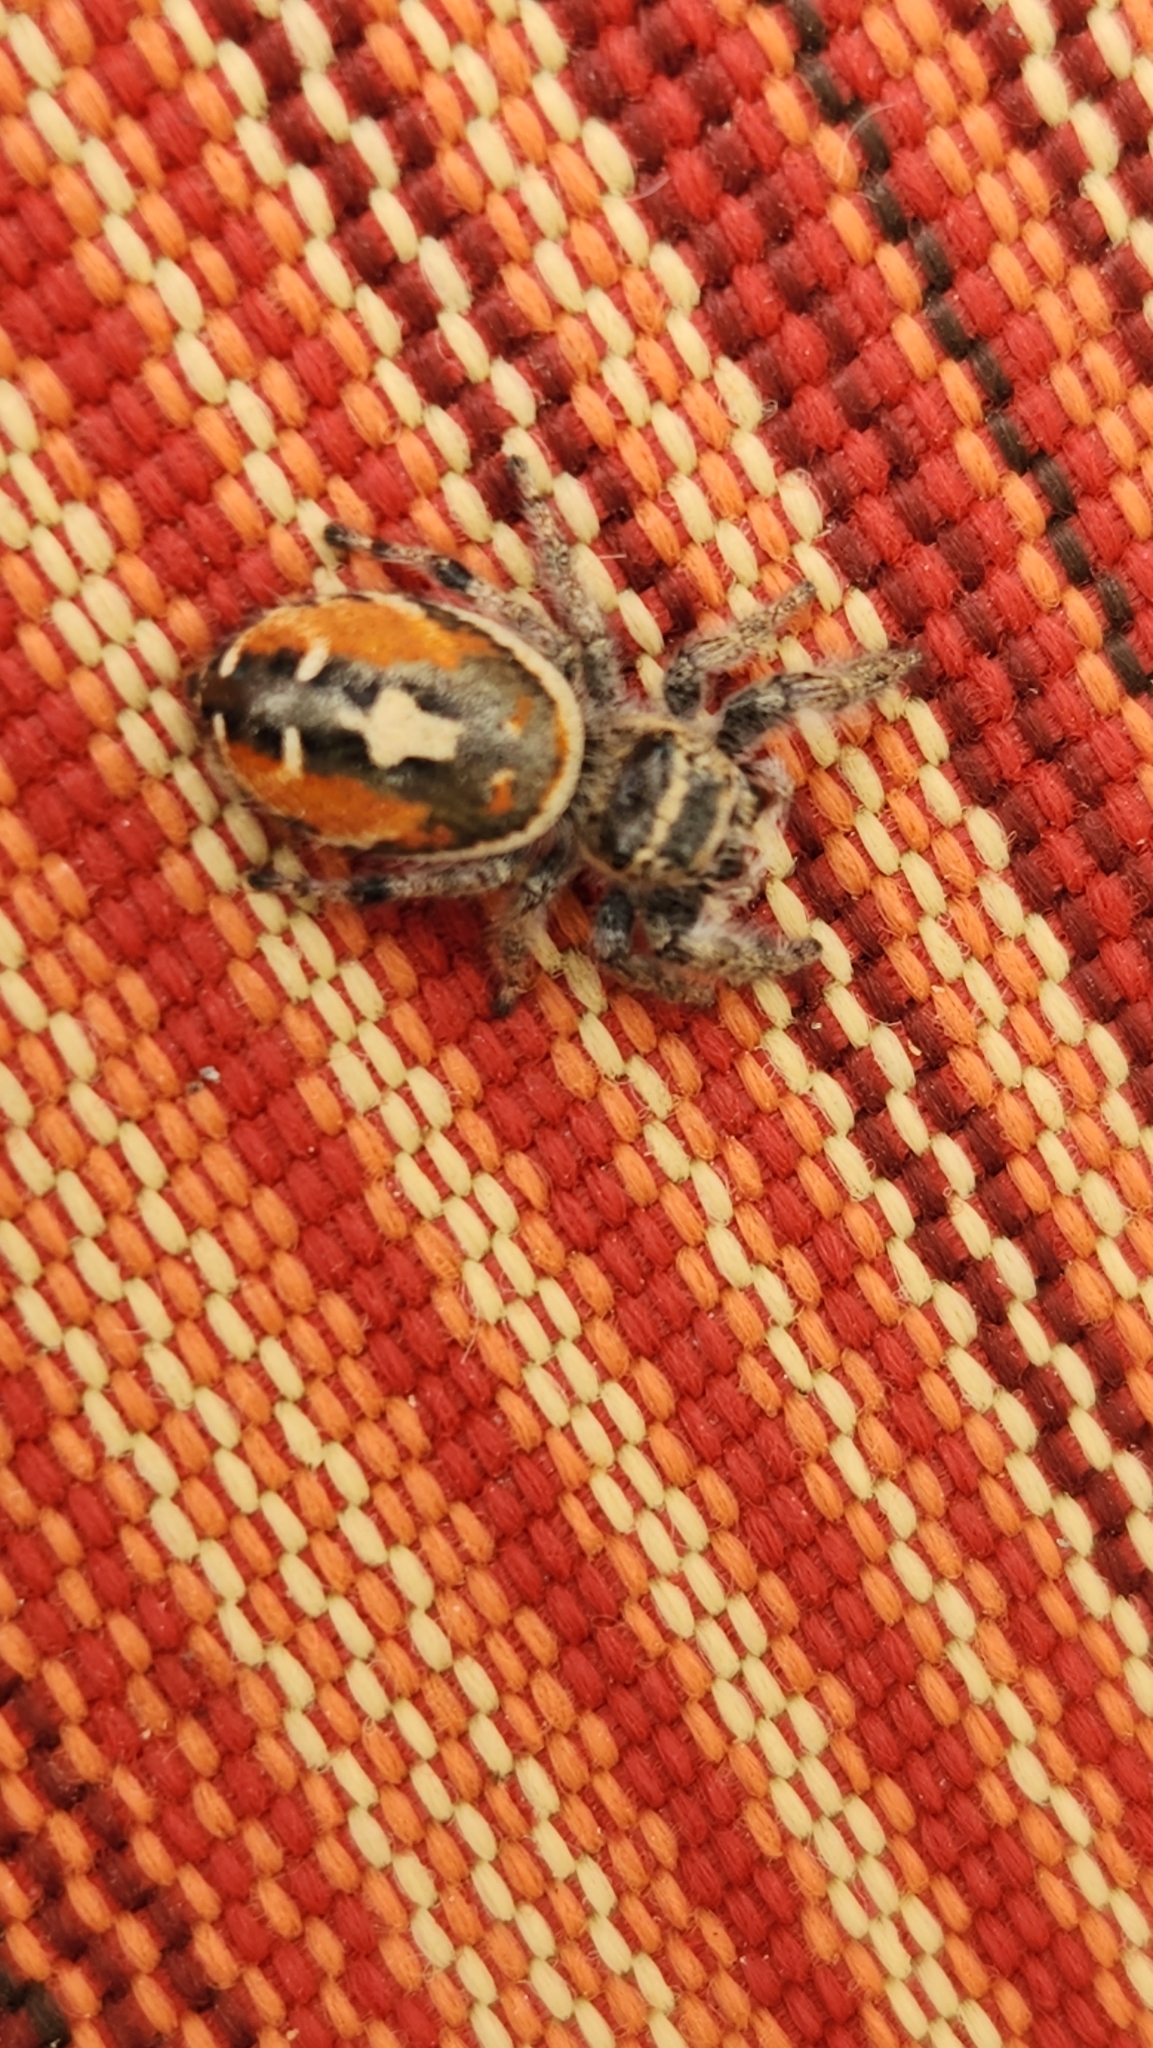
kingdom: Animalia
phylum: Arthropoda
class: Arachnida
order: Araneae
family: Salticidae
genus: Phidippus
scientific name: Phidippus californicus
